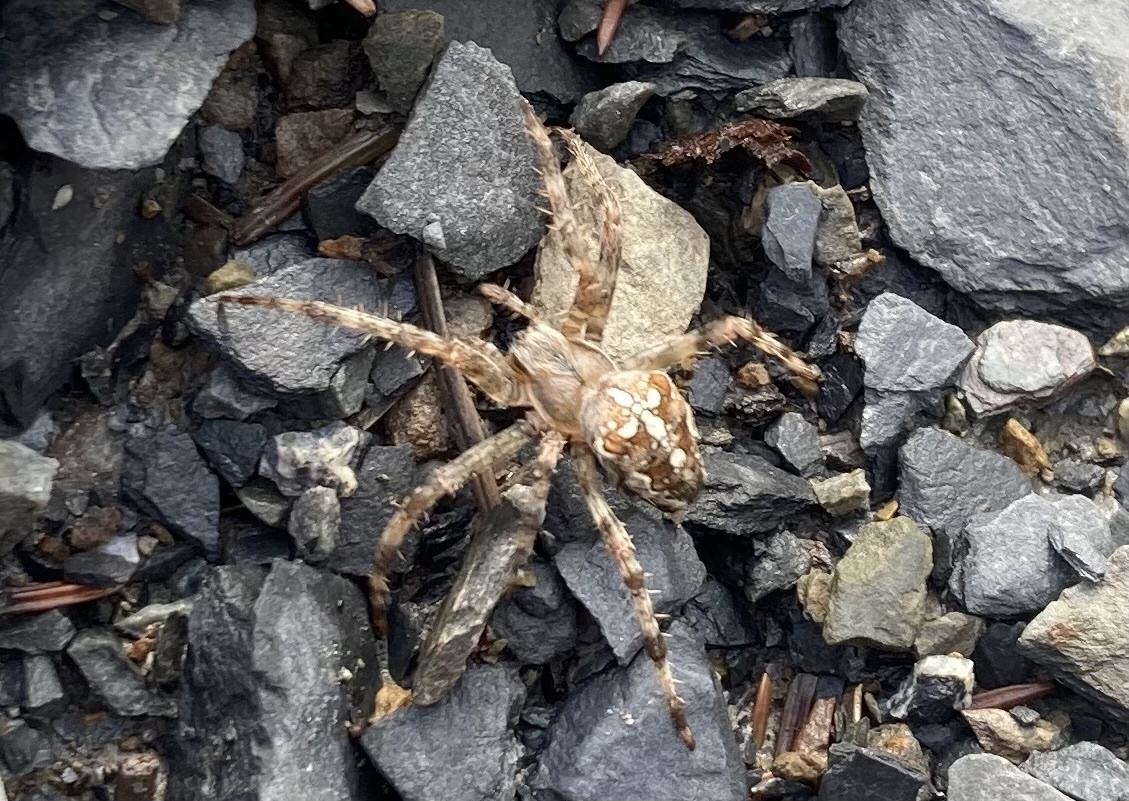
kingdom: Animalia
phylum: Arthropoda
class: Arachnida
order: Araneae
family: Araneidae
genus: Araneus
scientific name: Araneus diadematus
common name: Cross orbweaver
